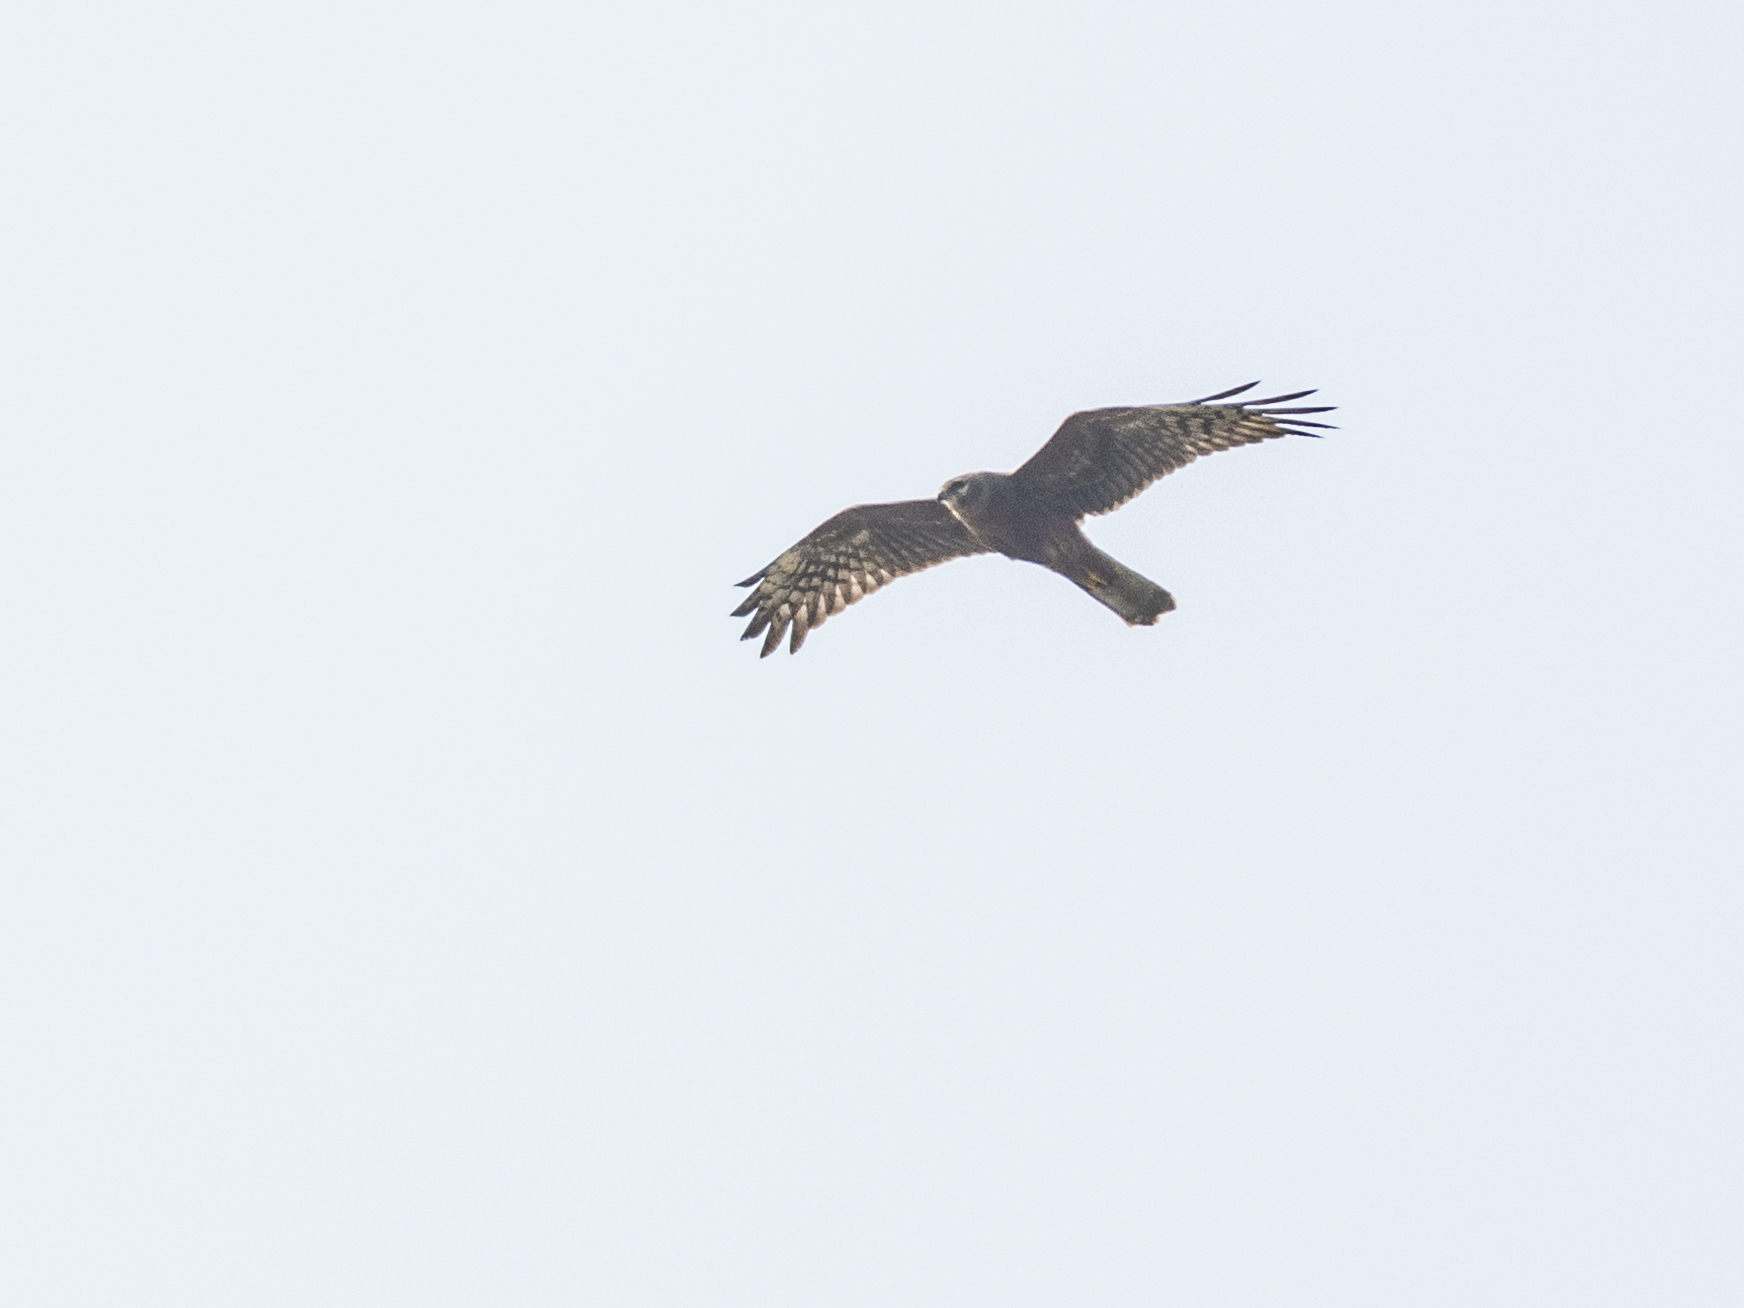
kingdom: Animalia
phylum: Chordata
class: Aves
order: Accipitriformes
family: Accipitridae
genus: Circus
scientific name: Circus melanoleucos
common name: Pied harrier
